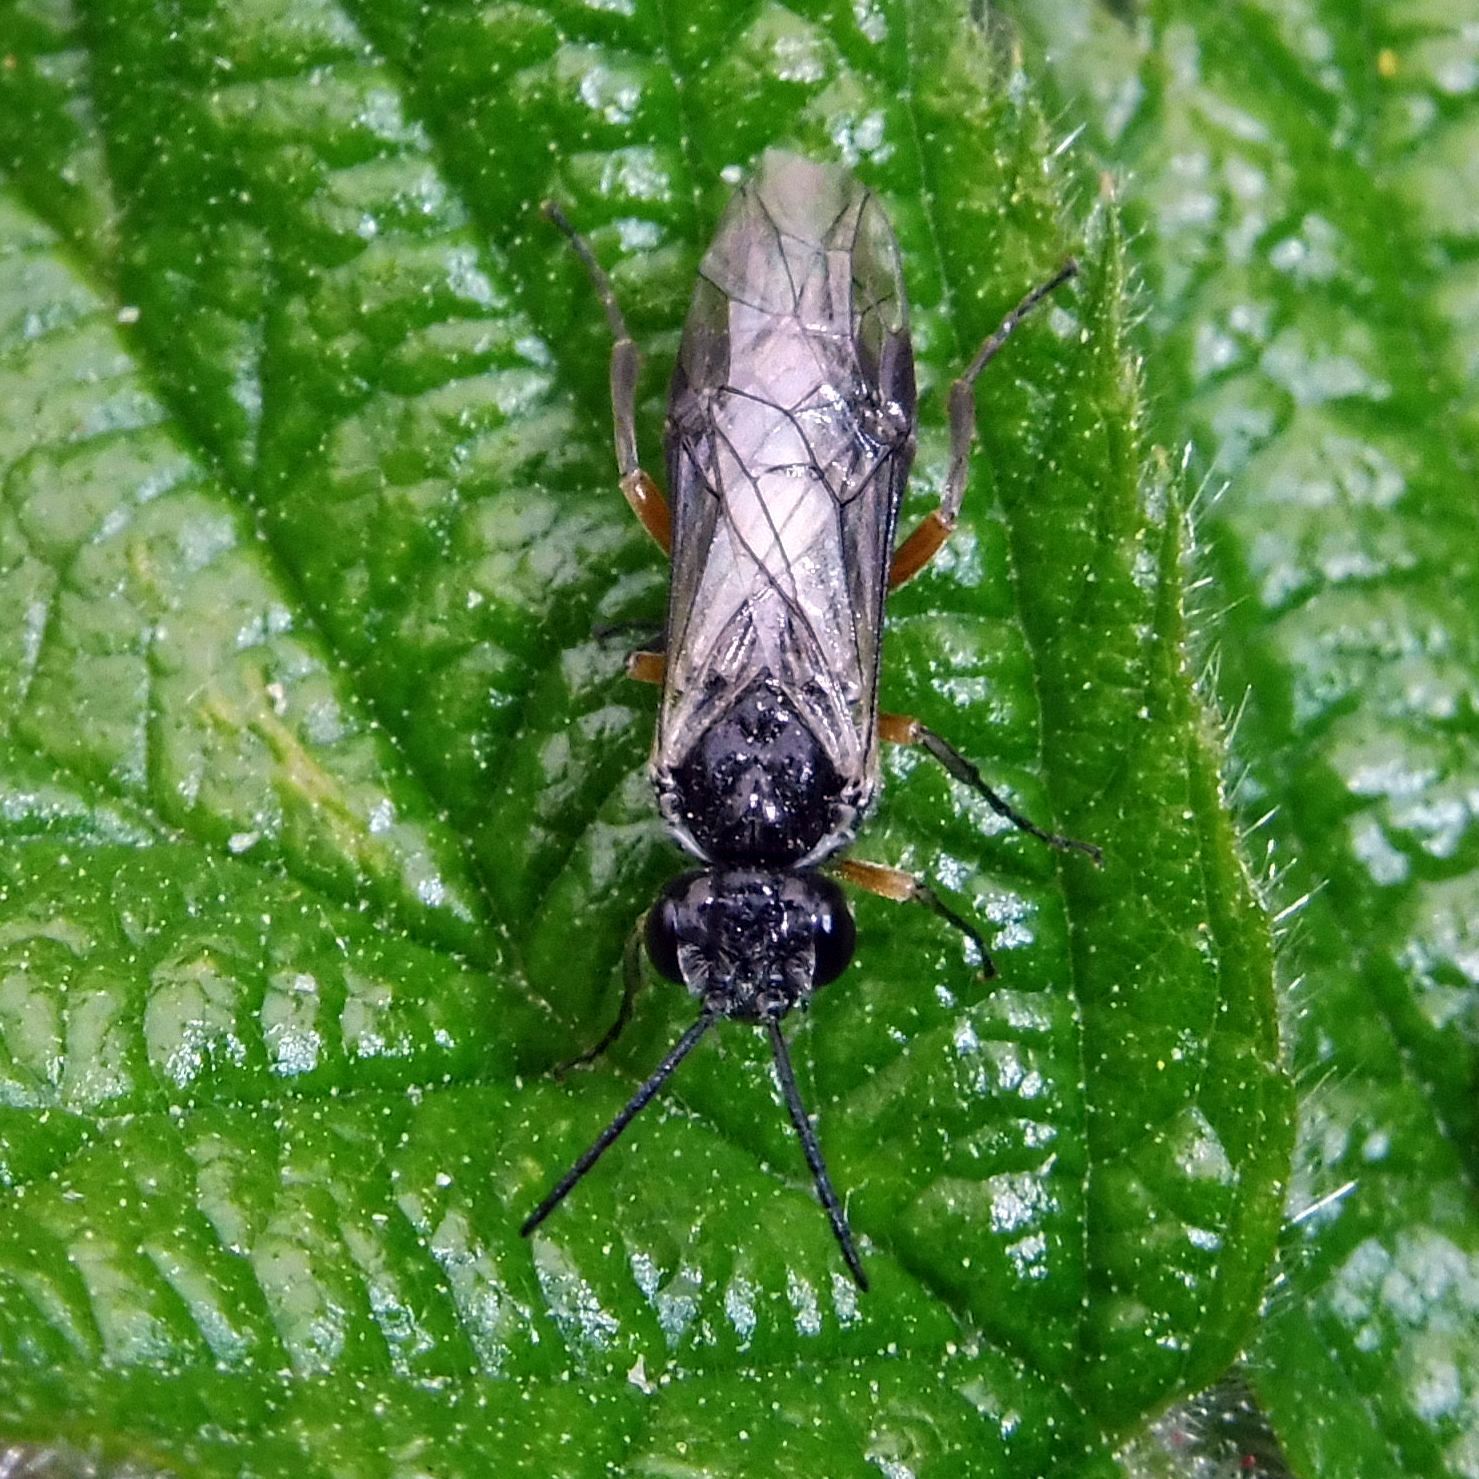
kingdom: Animalia
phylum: Arthropoda
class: Insecta
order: Hymenoptera
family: Tenthredinidae
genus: Periclista
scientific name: Periclista pubescens
